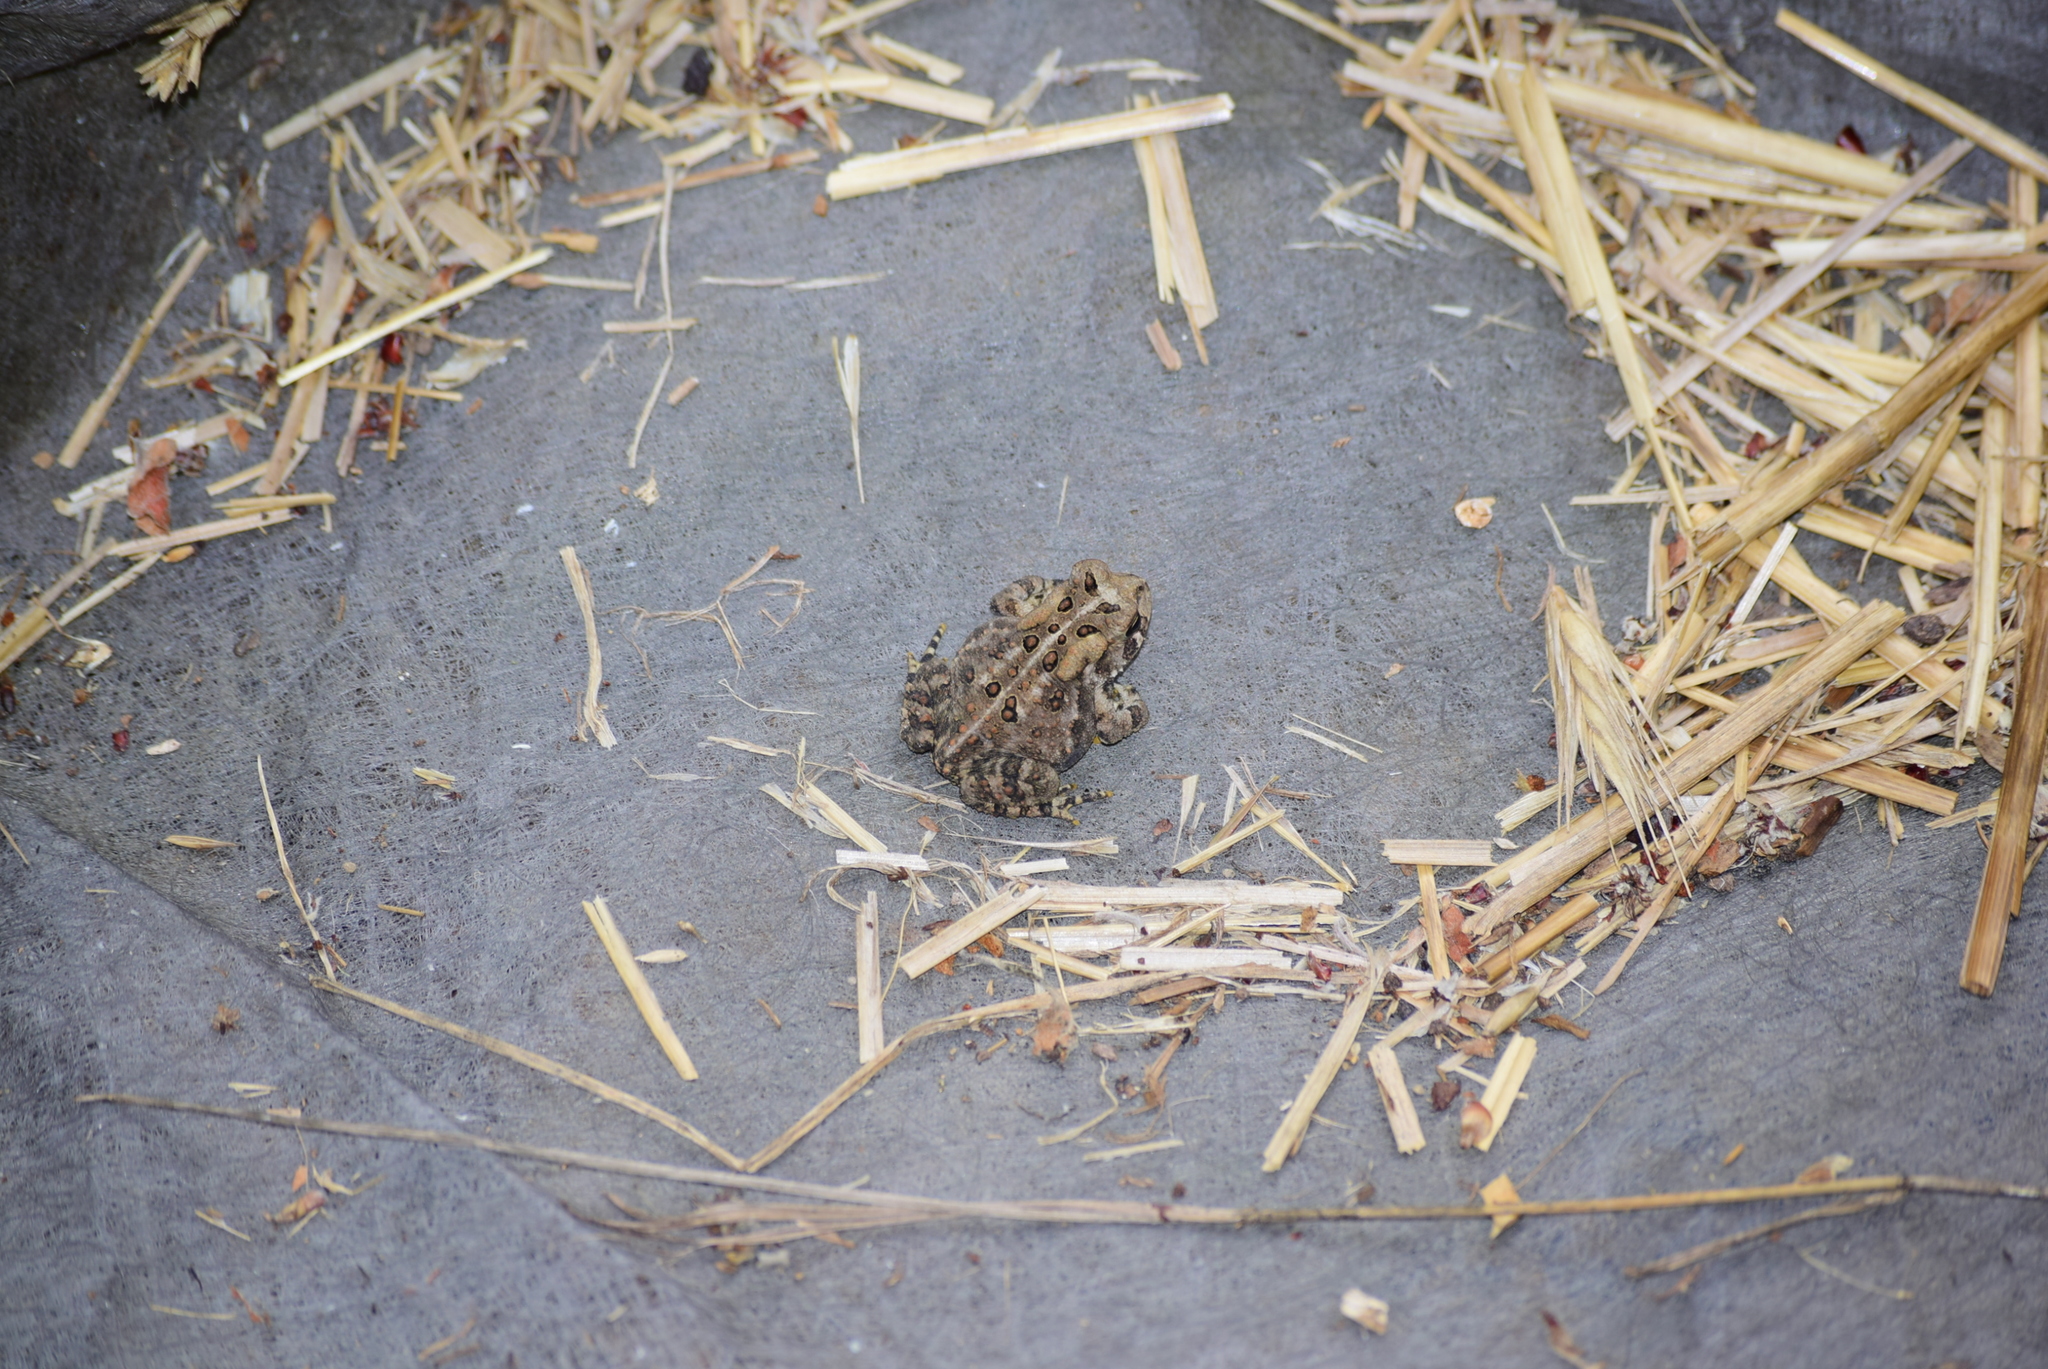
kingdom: Animalia
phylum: Chordata
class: Amphibia
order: Anura
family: Bufonidae
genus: Anaxyrus
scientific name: Anaxyrus americanus
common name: American toad
